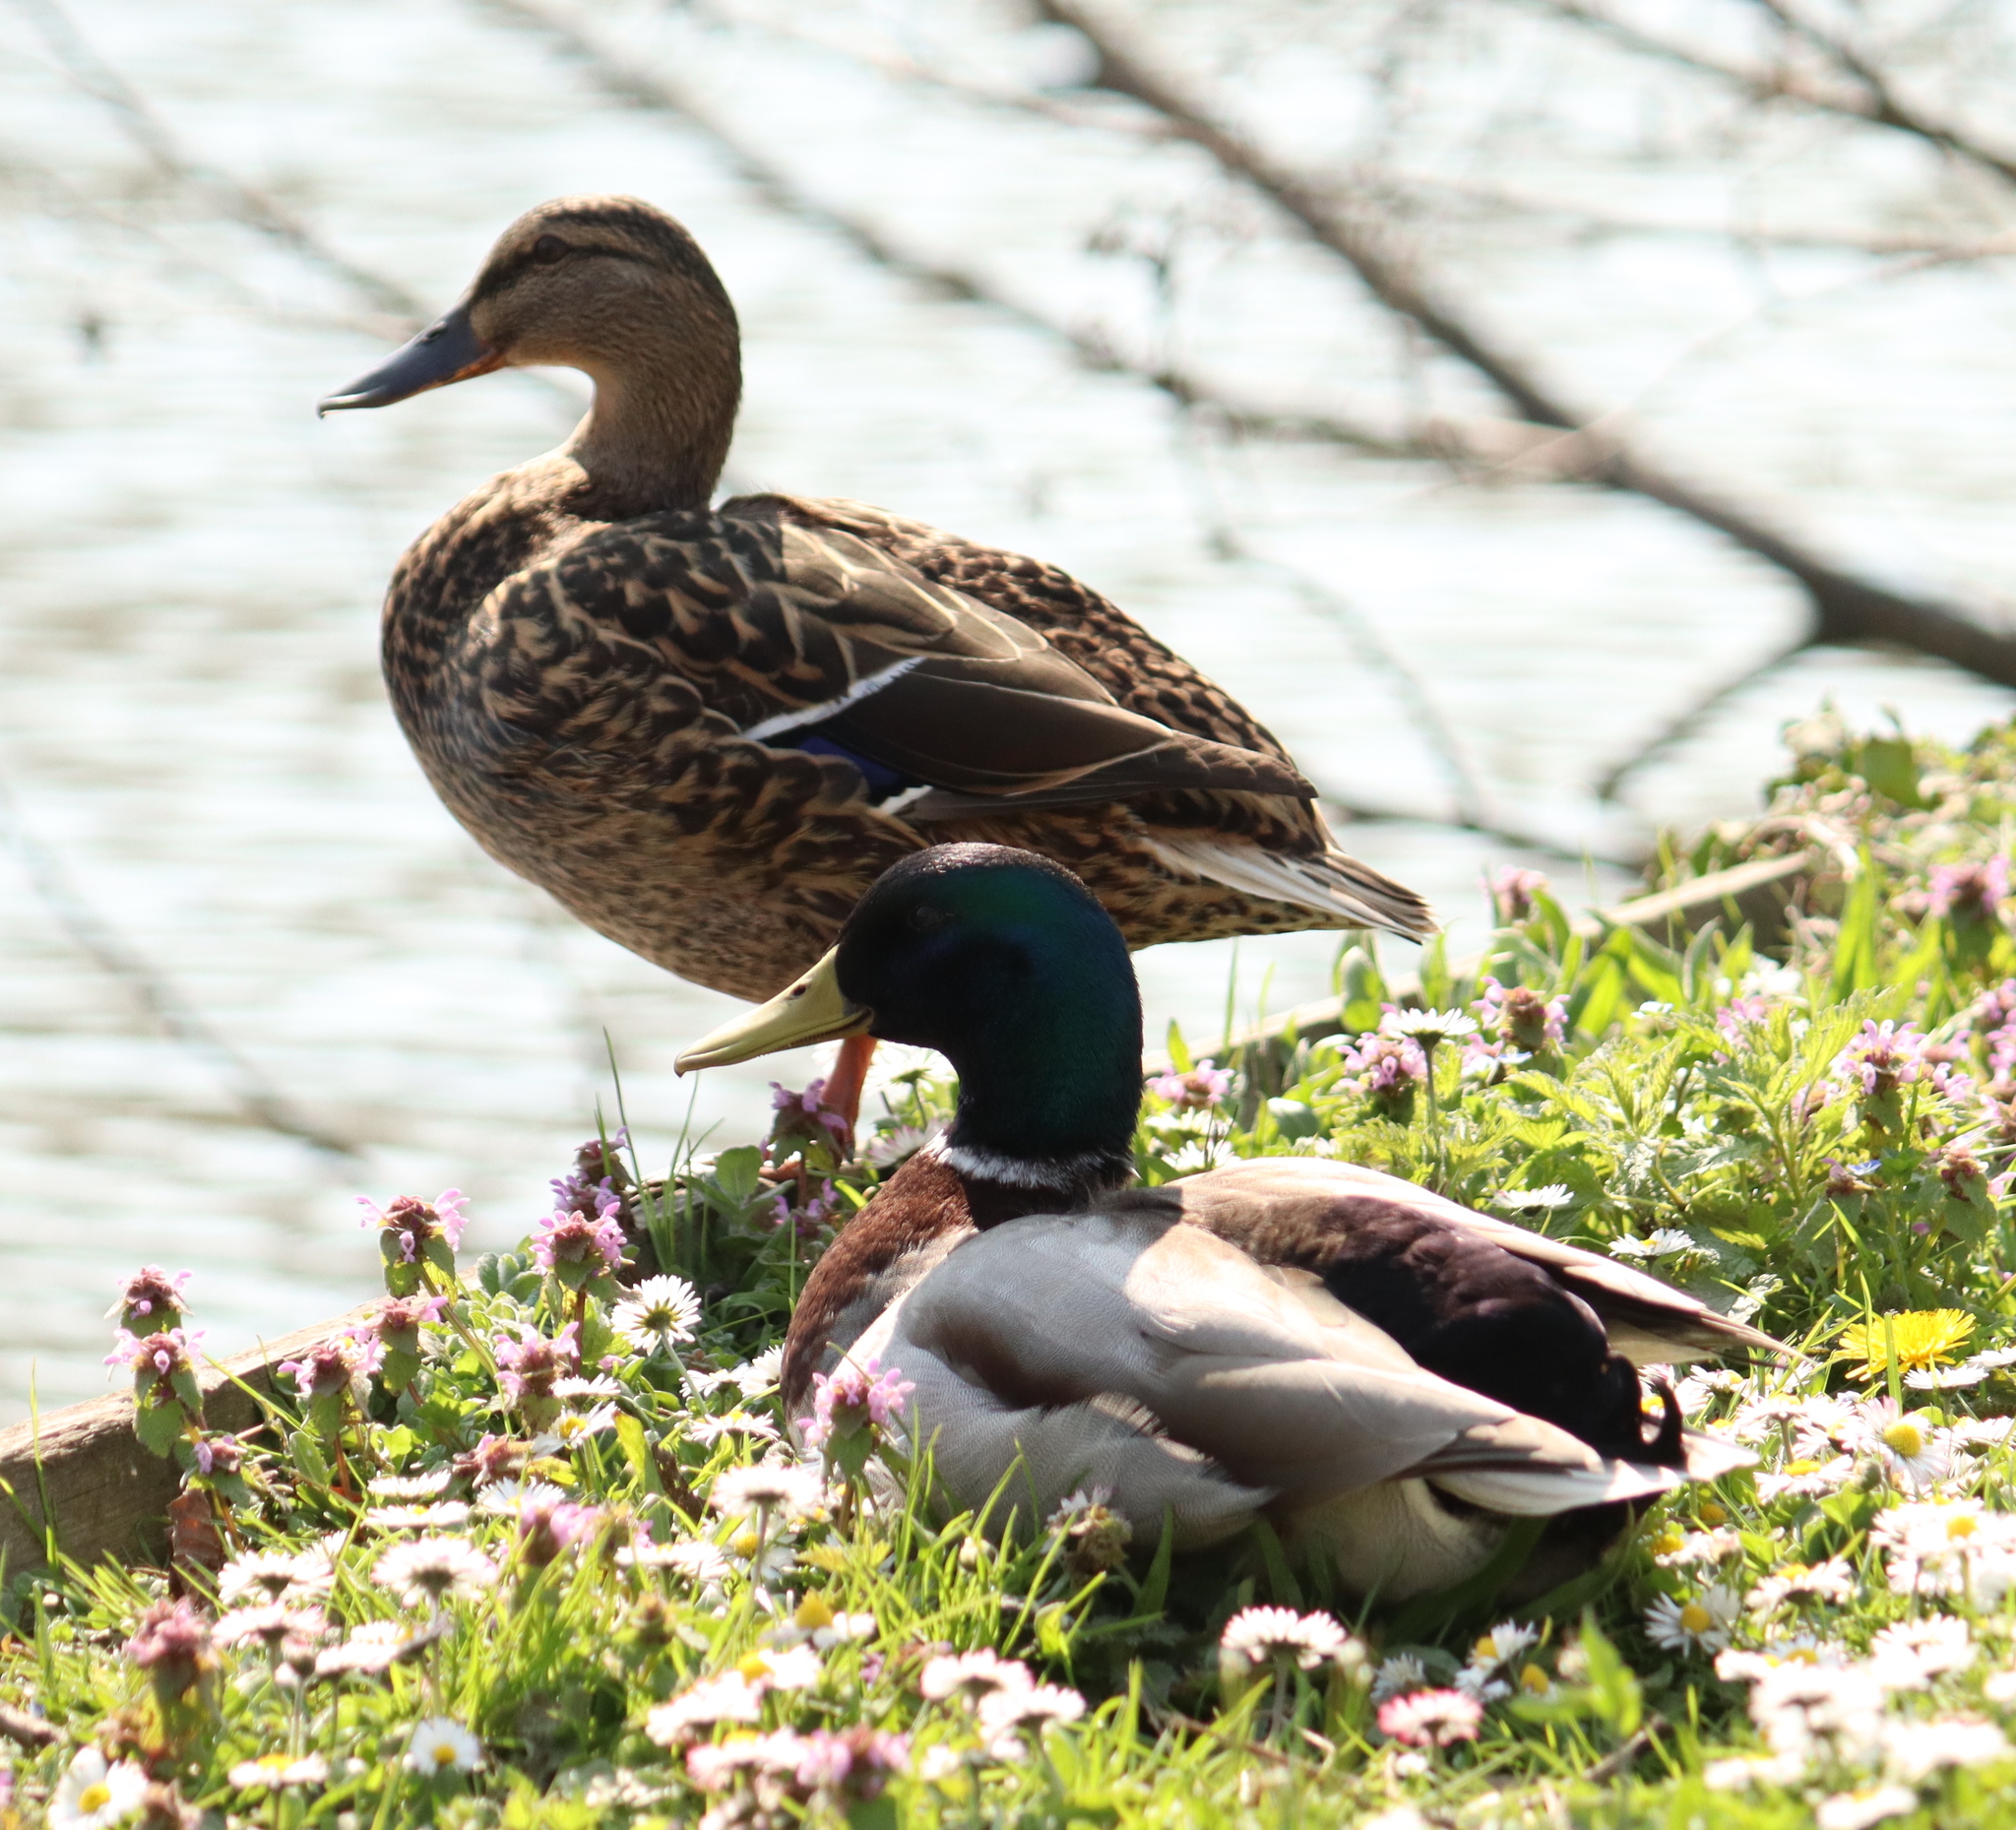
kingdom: Animalia
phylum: Chordata
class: Aves
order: Anseriformes
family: Anatidae
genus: Anas
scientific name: Anas platyrhynchos
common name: Mallard
